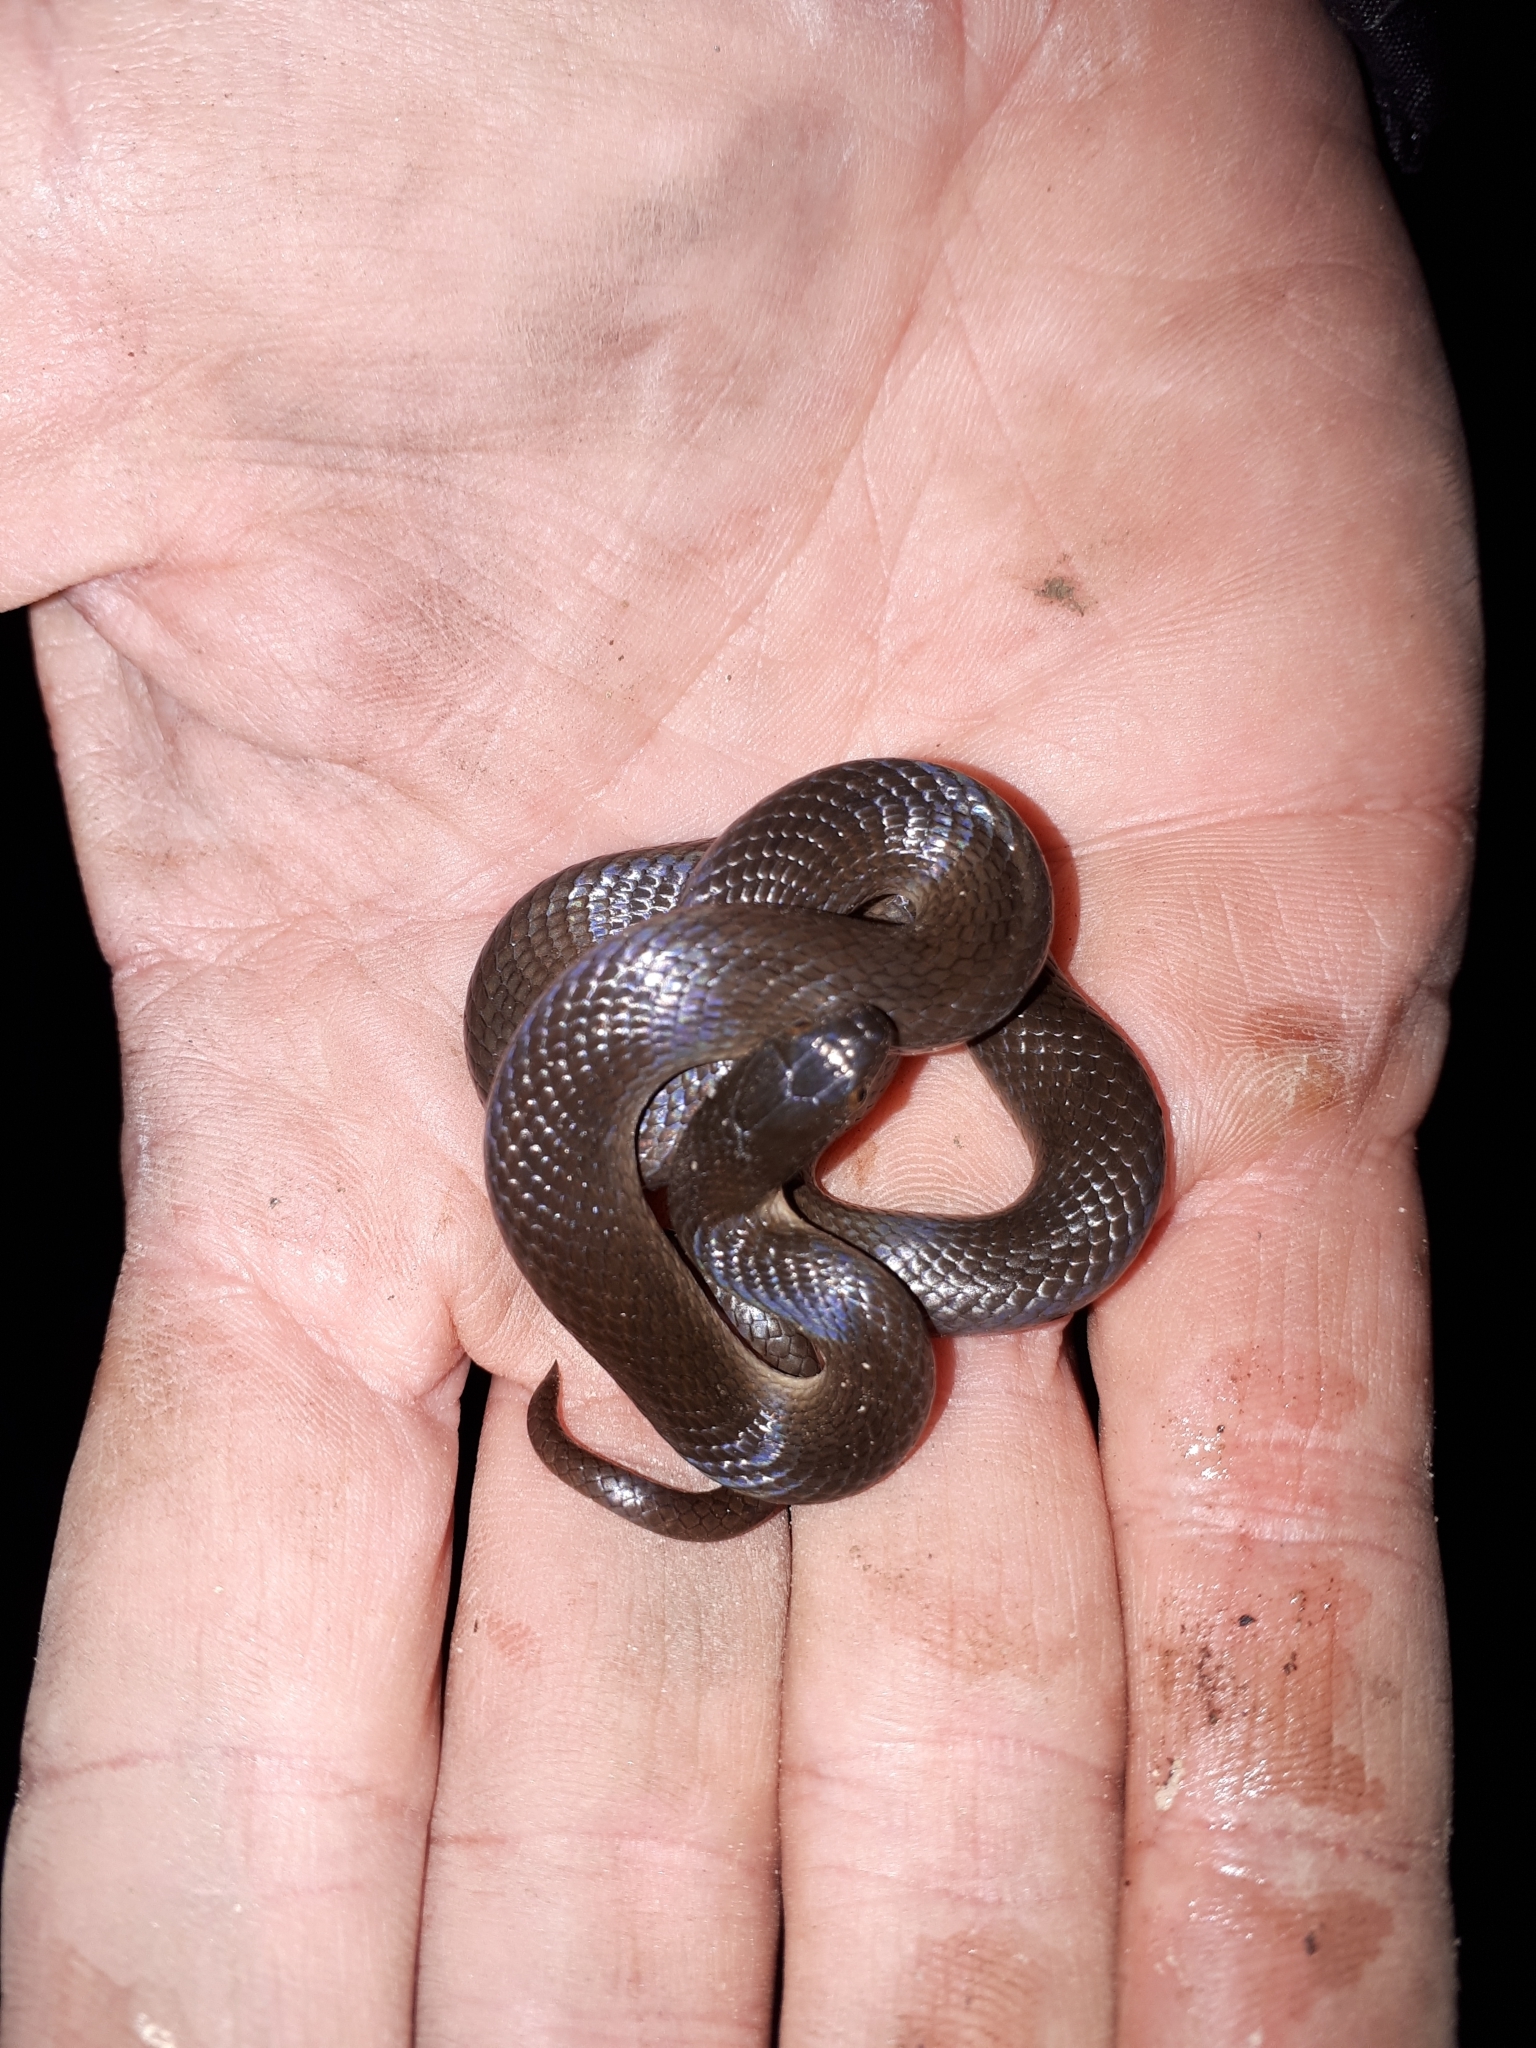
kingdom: Animalia
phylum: Chordata
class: Squamata
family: Lamprophiidae
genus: Lycodonomorphus
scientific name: Lycodonomorphus rufulus
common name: Brown water snake
